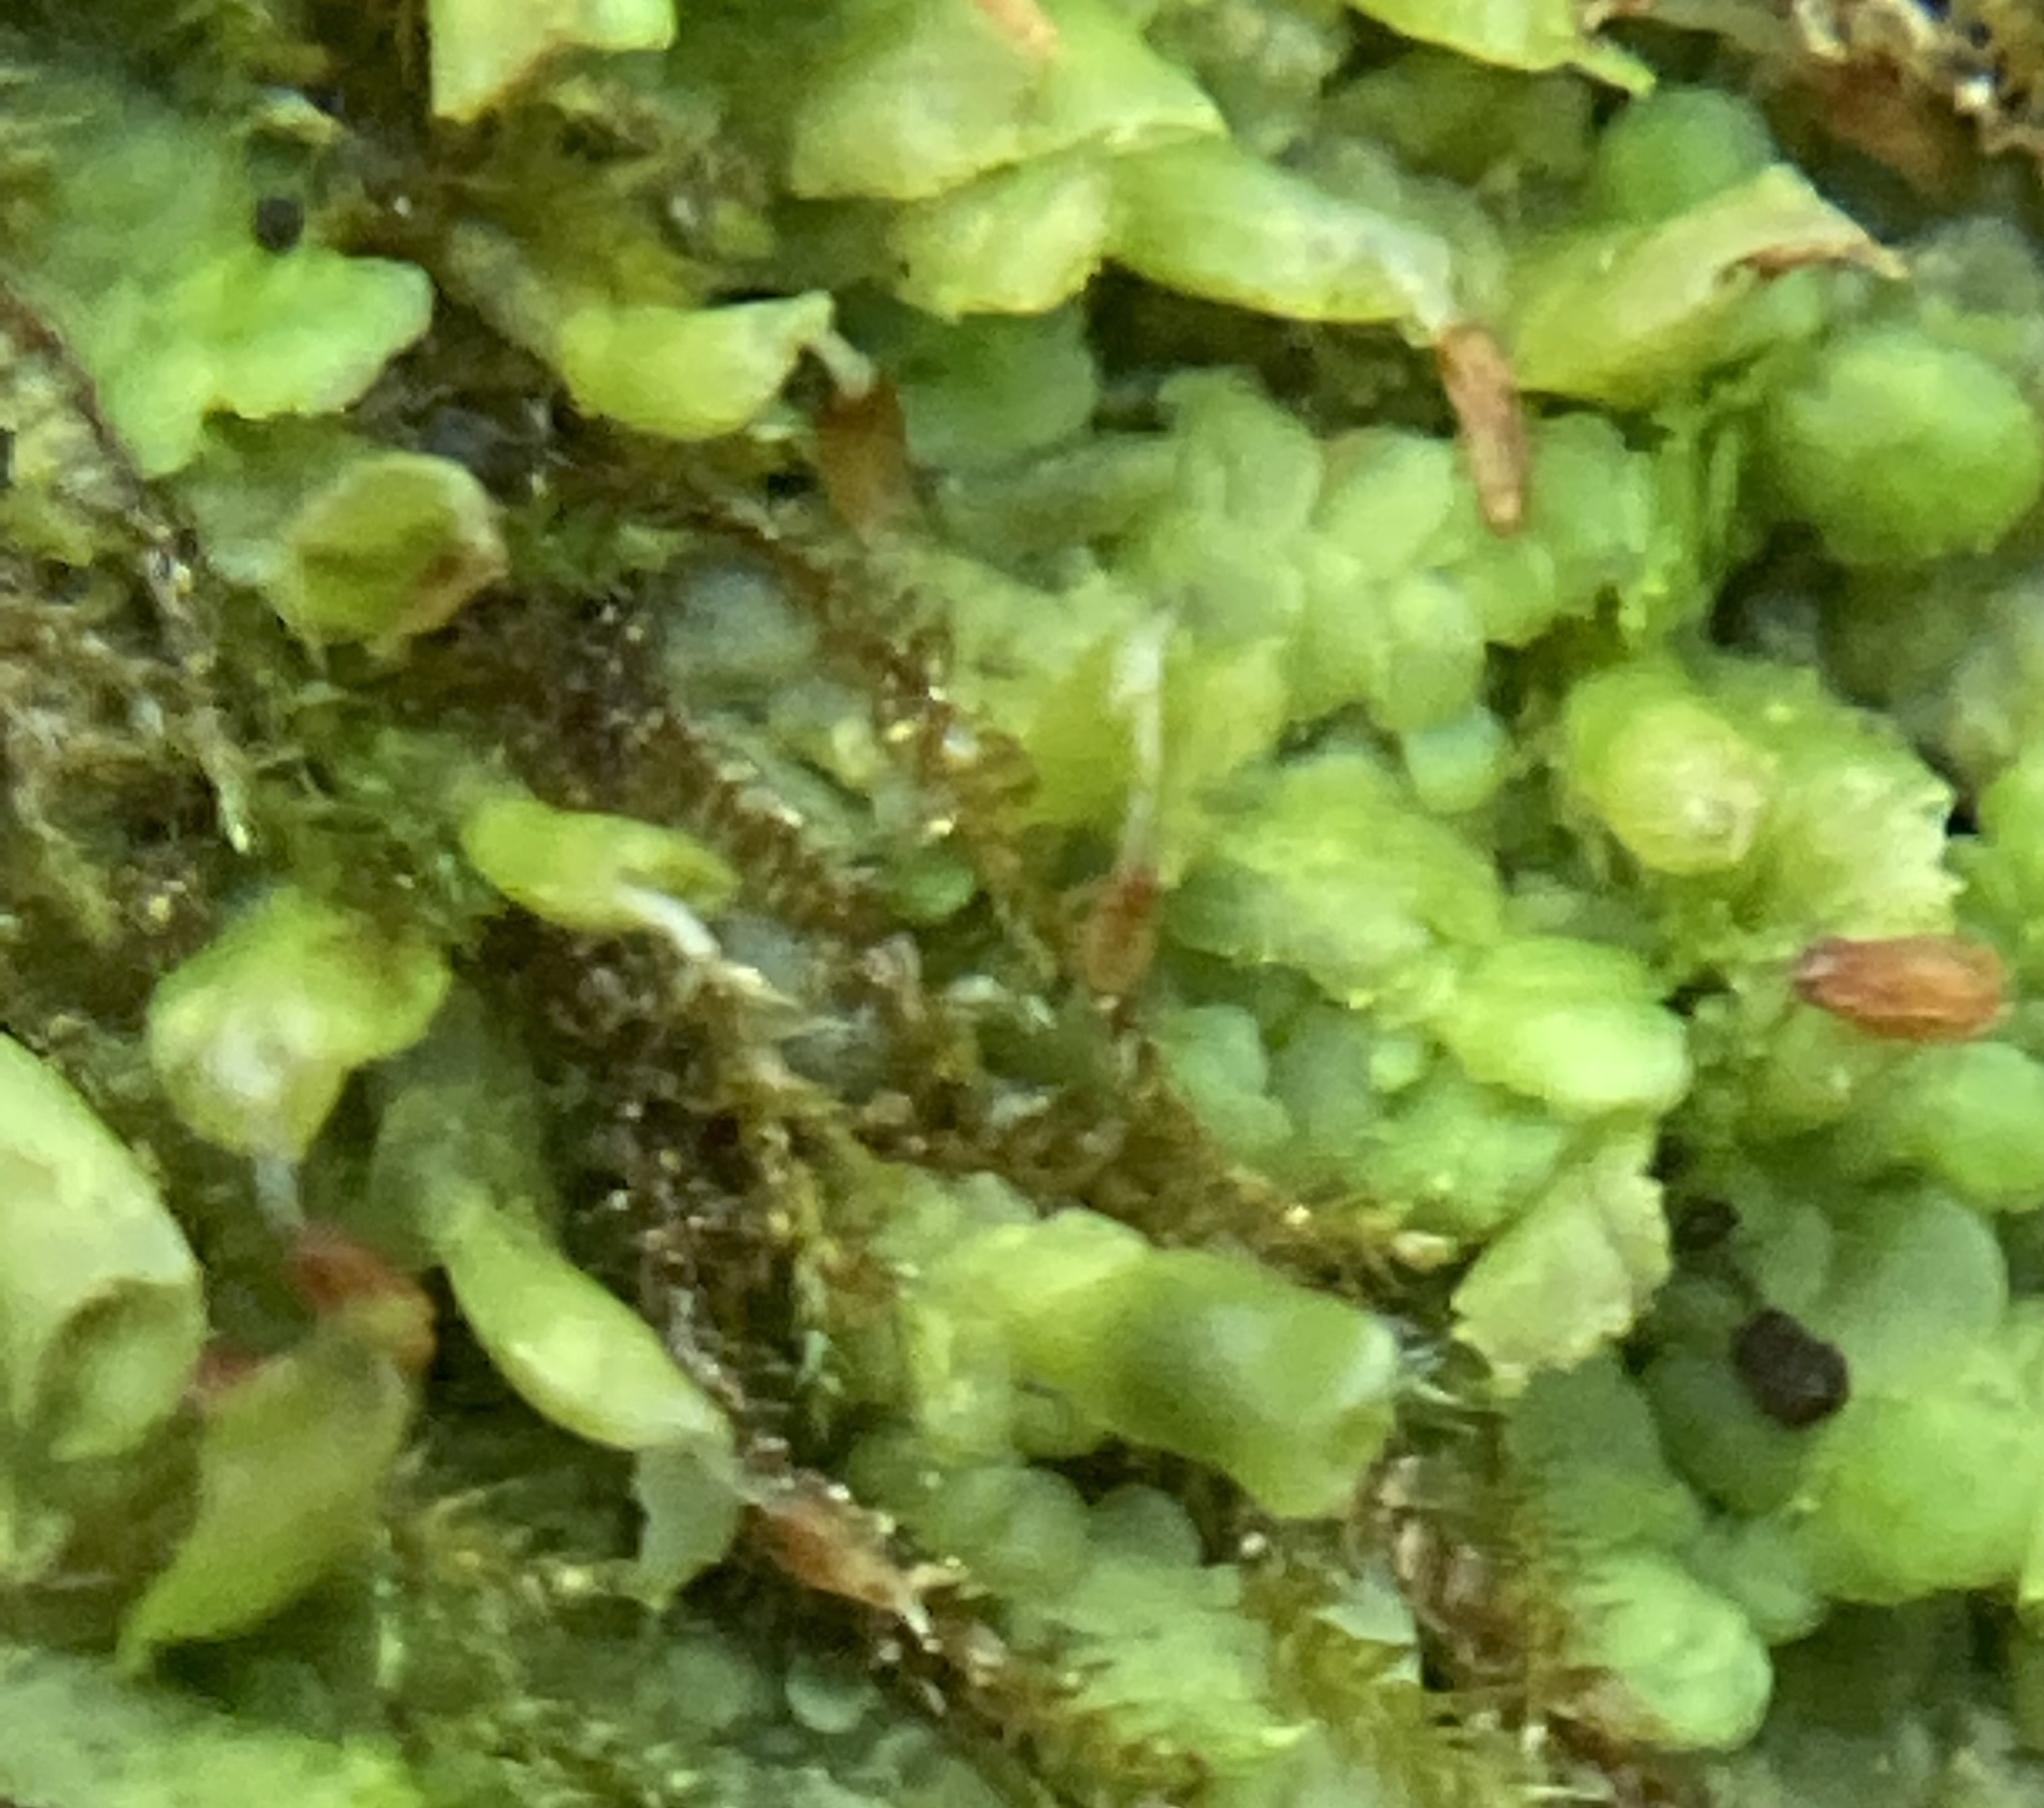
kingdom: Plantae
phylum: Marchantiophyta
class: Jungermanniopsida
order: Porellales
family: Radulaceae
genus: Radula
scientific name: Radula complanata
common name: Flat-leaved scalewort
